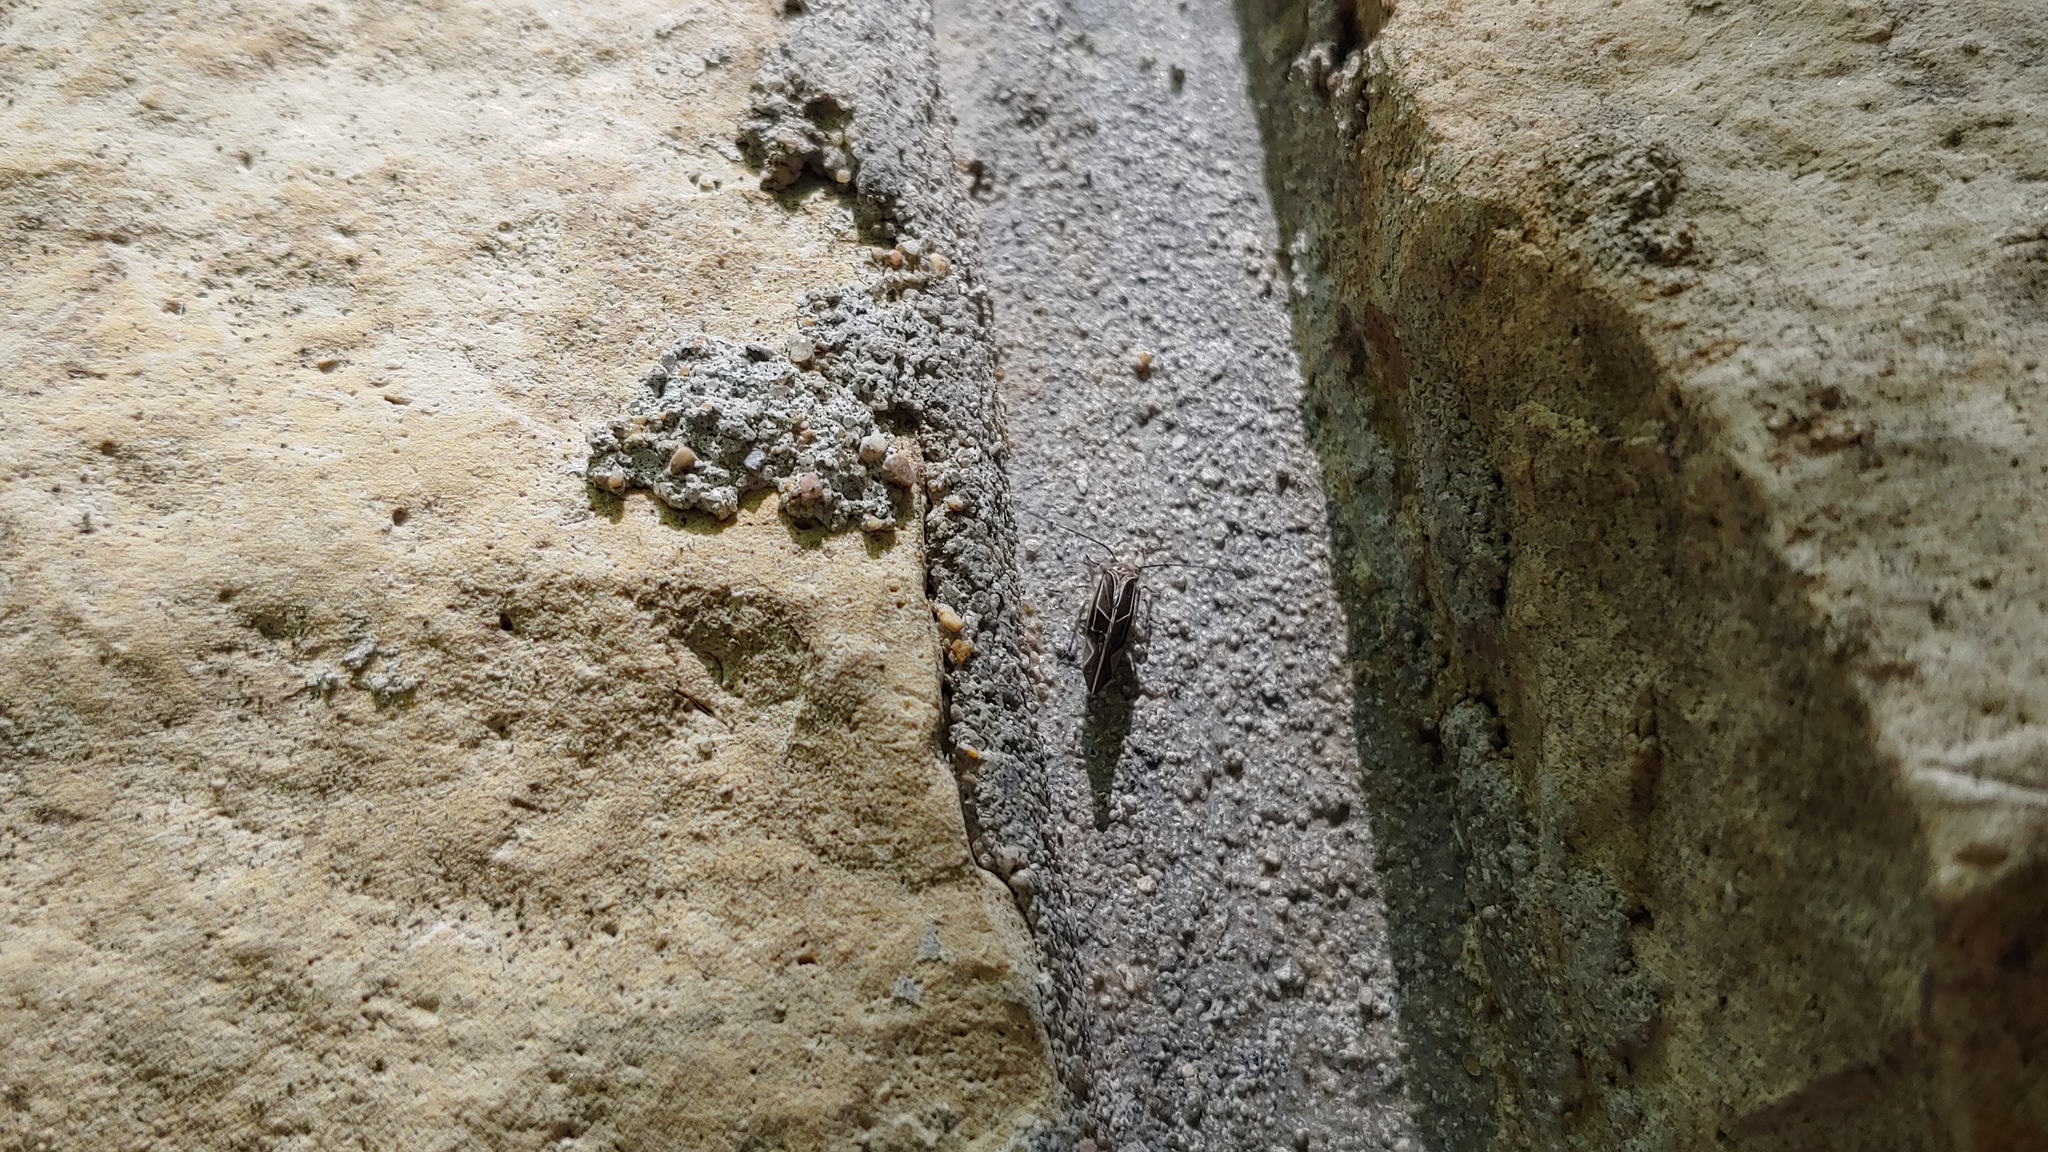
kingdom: Animalia
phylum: Arthropoda
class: Insecta
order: Psocodea
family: Psocidae
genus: Cerastipsocus
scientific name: Cerastipsocus venosus
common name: Tree cattle
